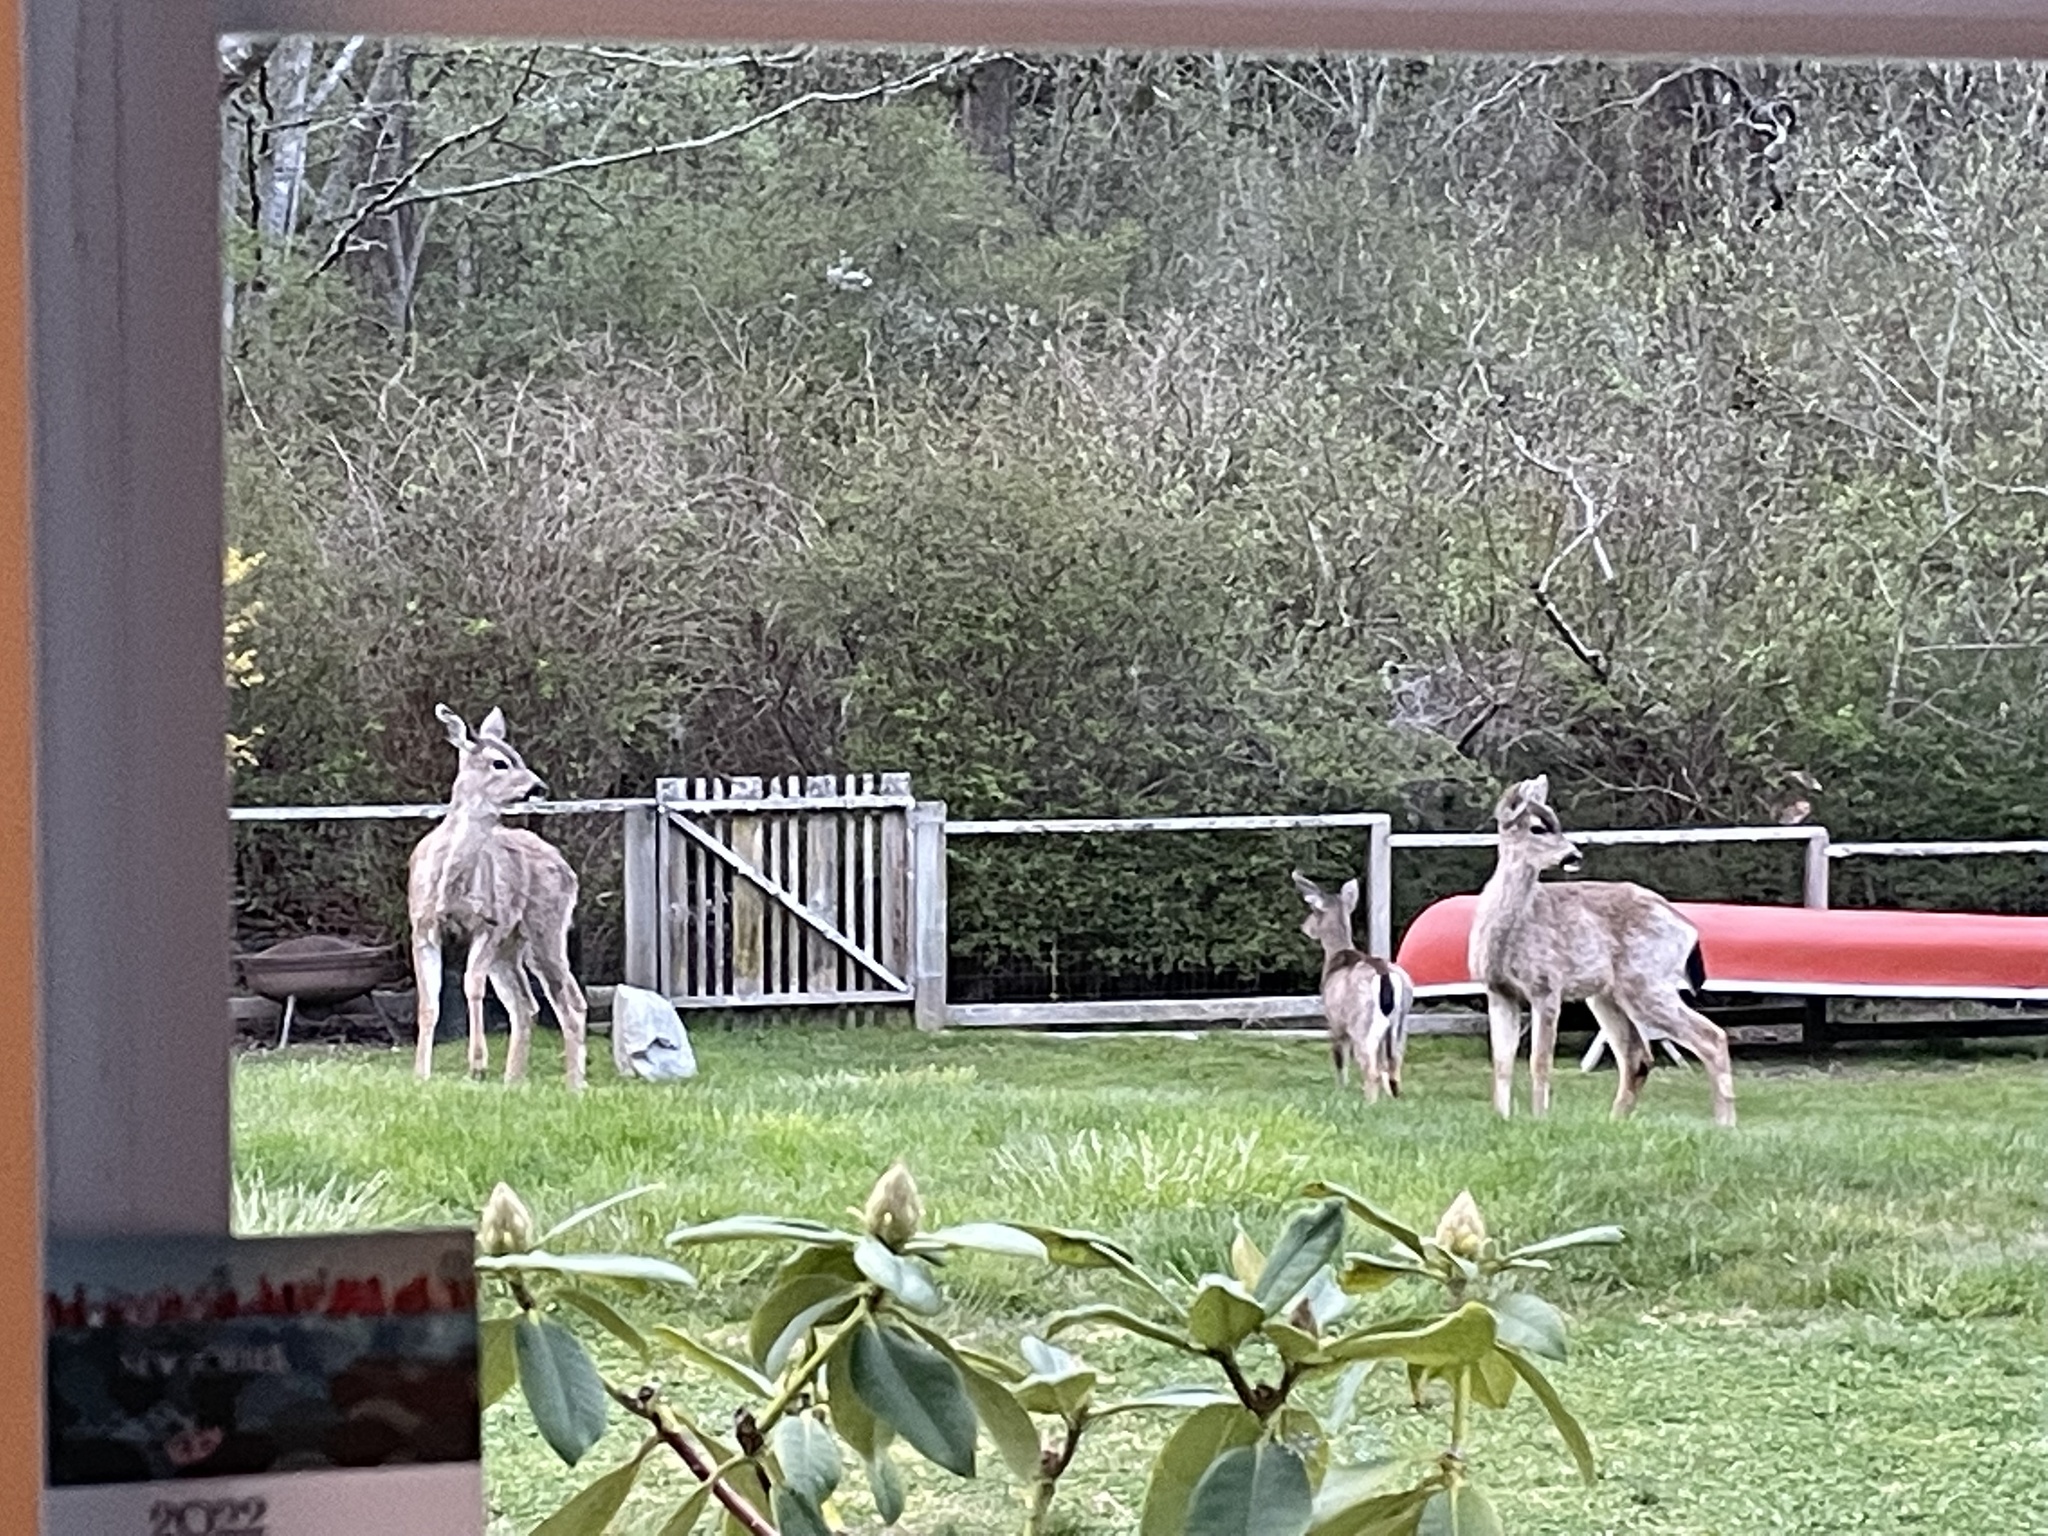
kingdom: Animalia
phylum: Chordata
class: Mammalia
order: Artiodactyla
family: Cervidae
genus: Odocoileus
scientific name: Odocoileus hemionus
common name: Mule deer
